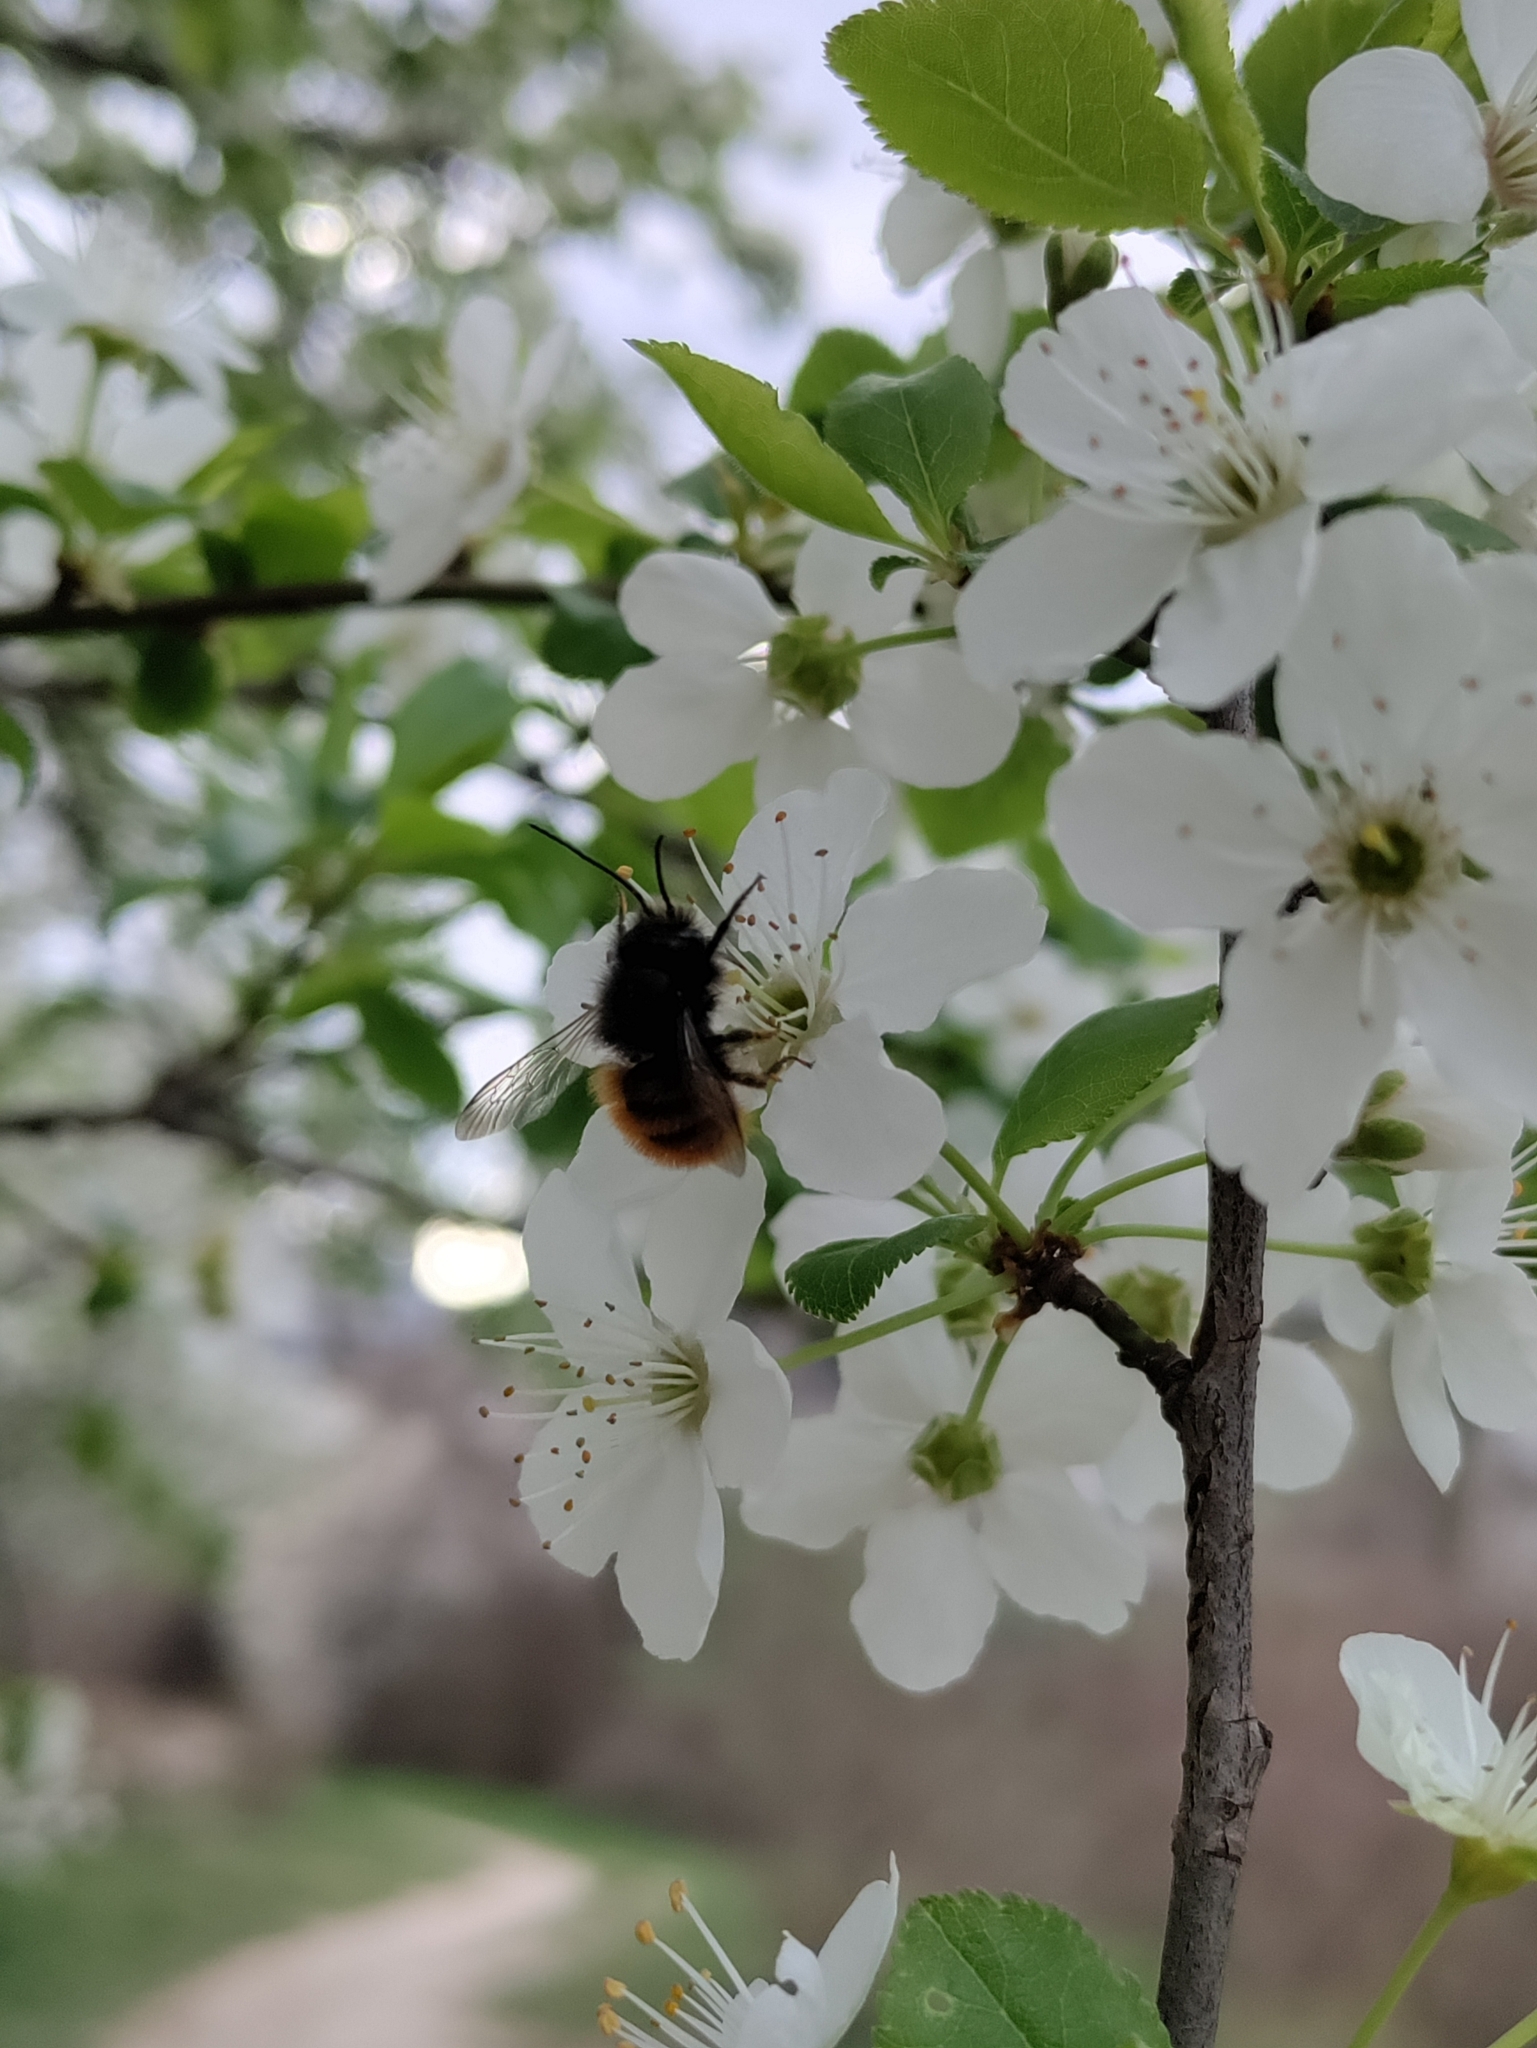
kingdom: Animalia
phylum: Arthropoda
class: Insecta
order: Hymenoptera
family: Megachilidae
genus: Osmia
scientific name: Osmia cornuta
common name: Mason bee
